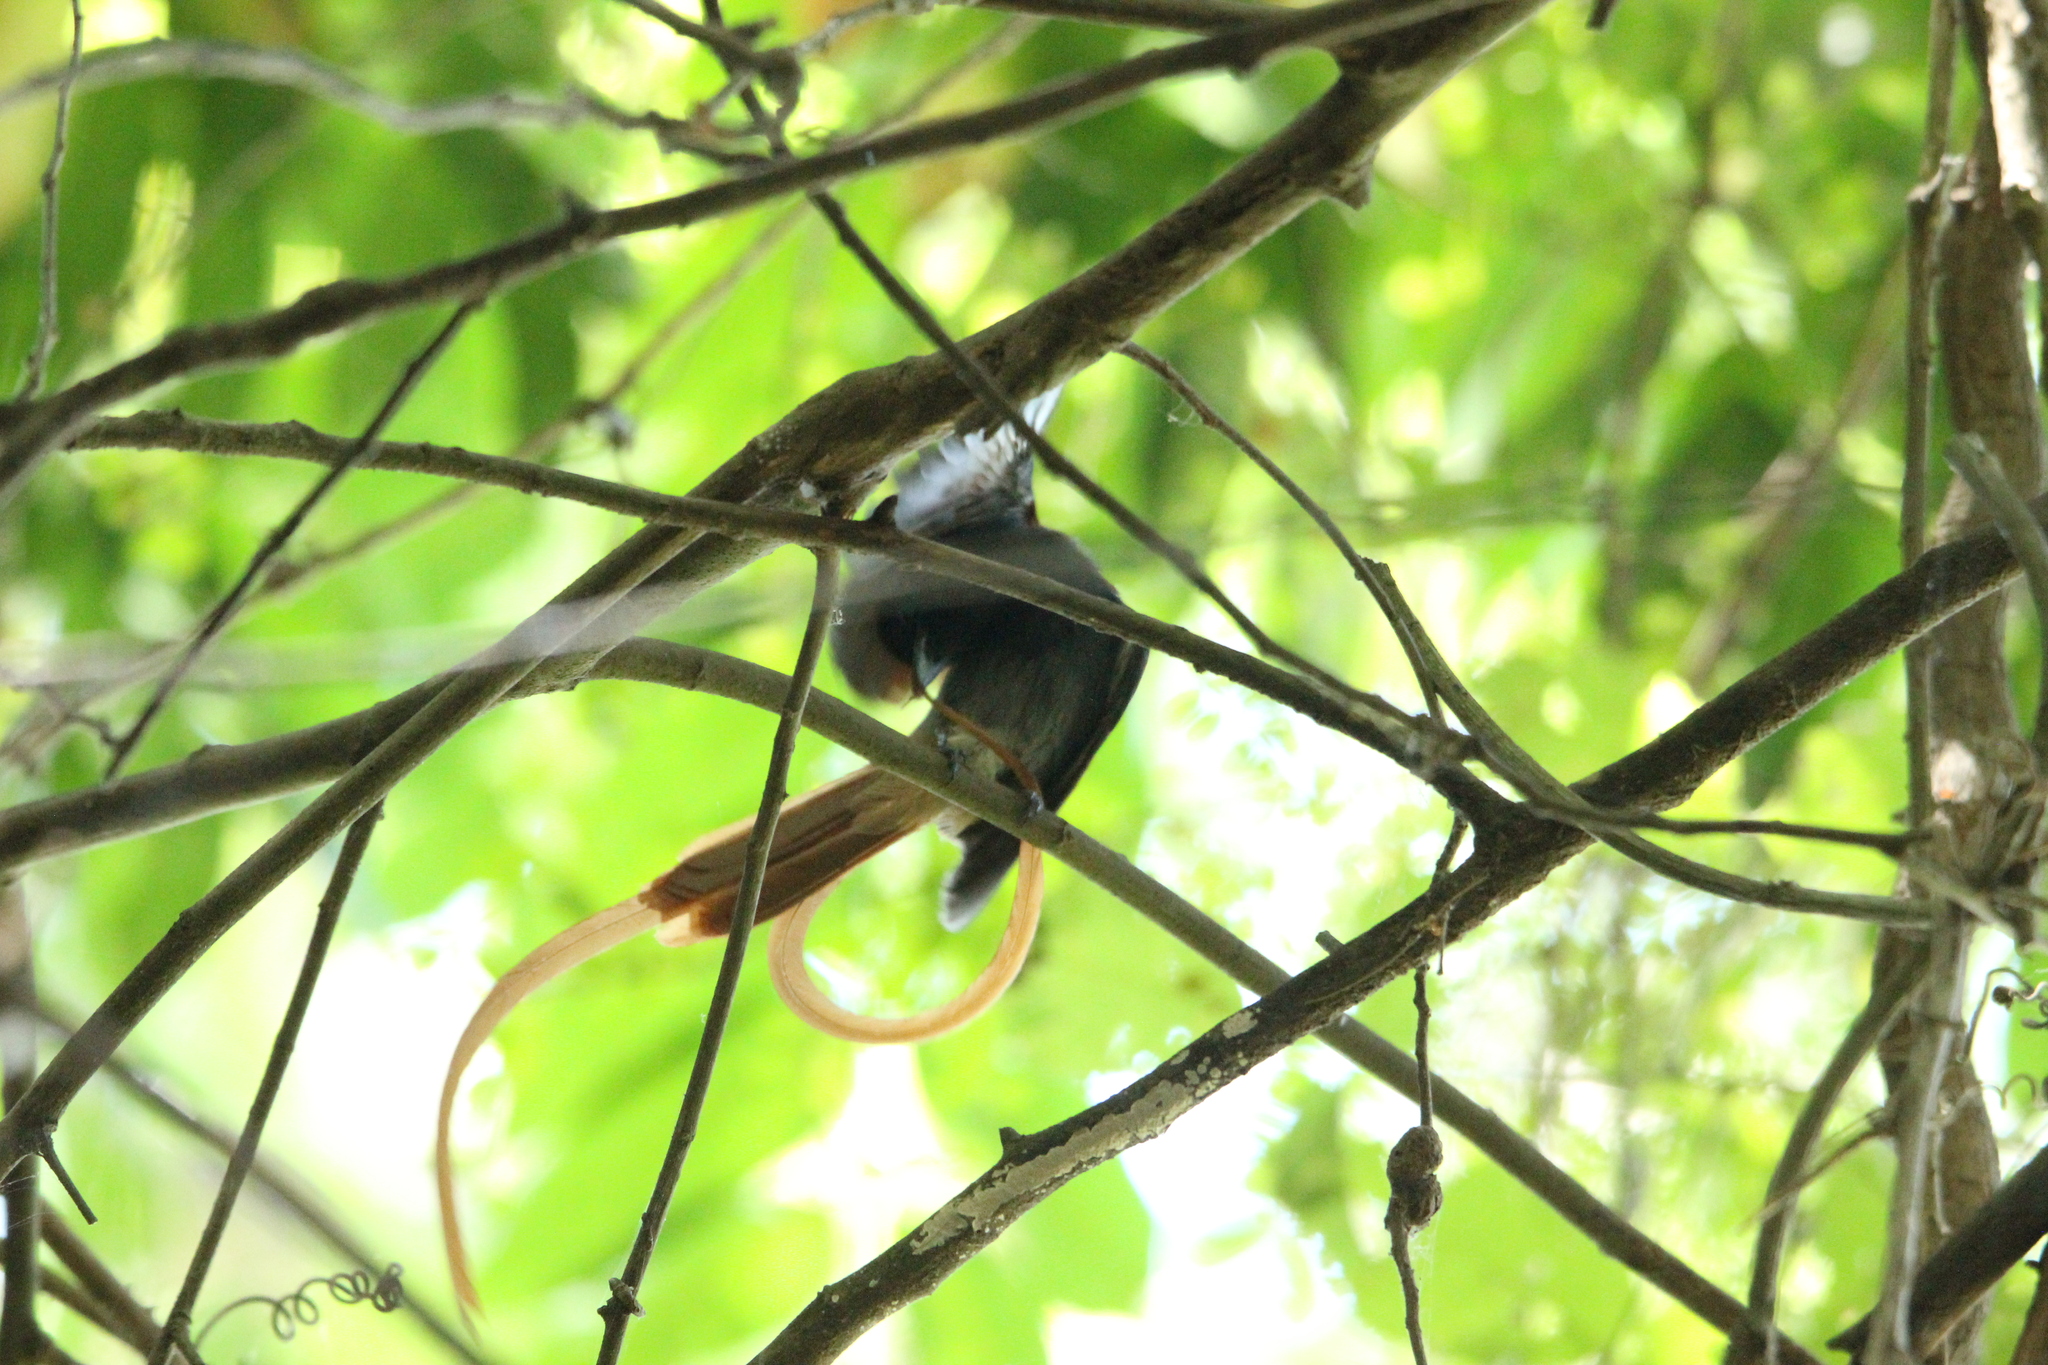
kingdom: Animalia
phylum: Chordata
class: Aves
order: Passeriformes
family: Monarchidae
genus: Terpsiphone
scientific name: Terpsiphone viridis
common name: African paradise flycatcher
